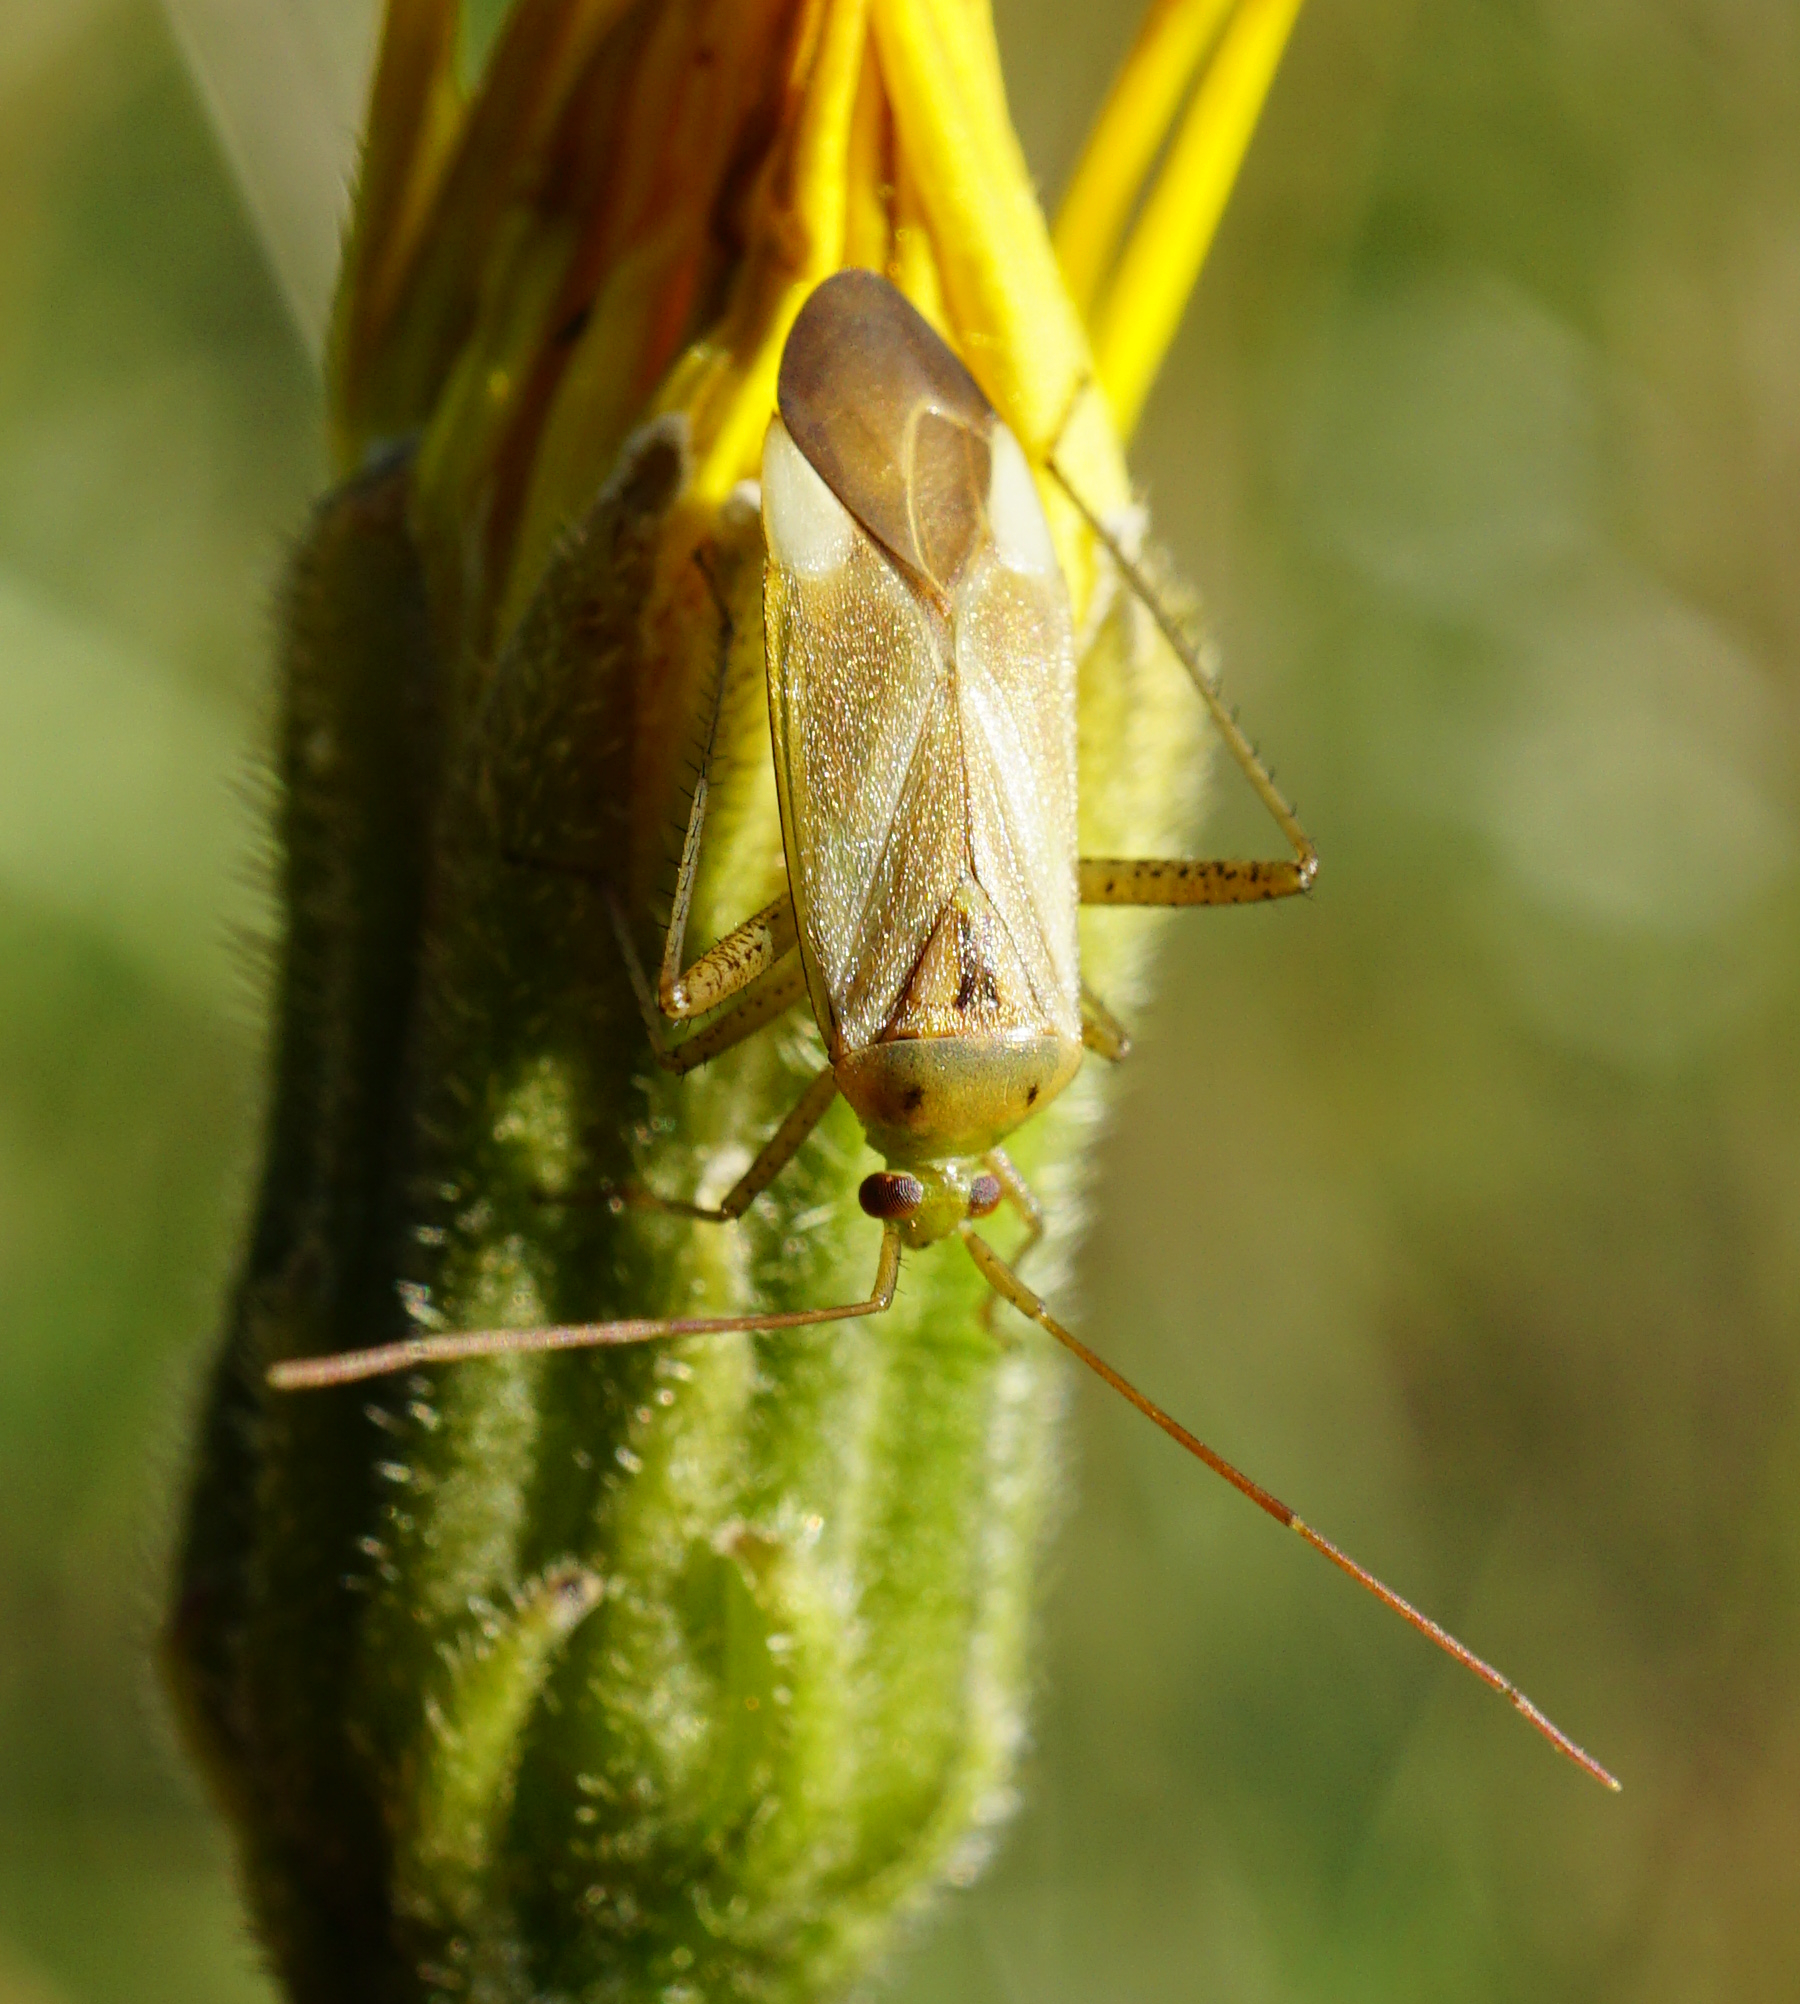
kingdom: Animalia
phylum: Arthropoda
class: Insecta
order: Hemiptera
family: Miridae
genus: Adelphocoris
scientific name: Adelphocoris lineolatus
